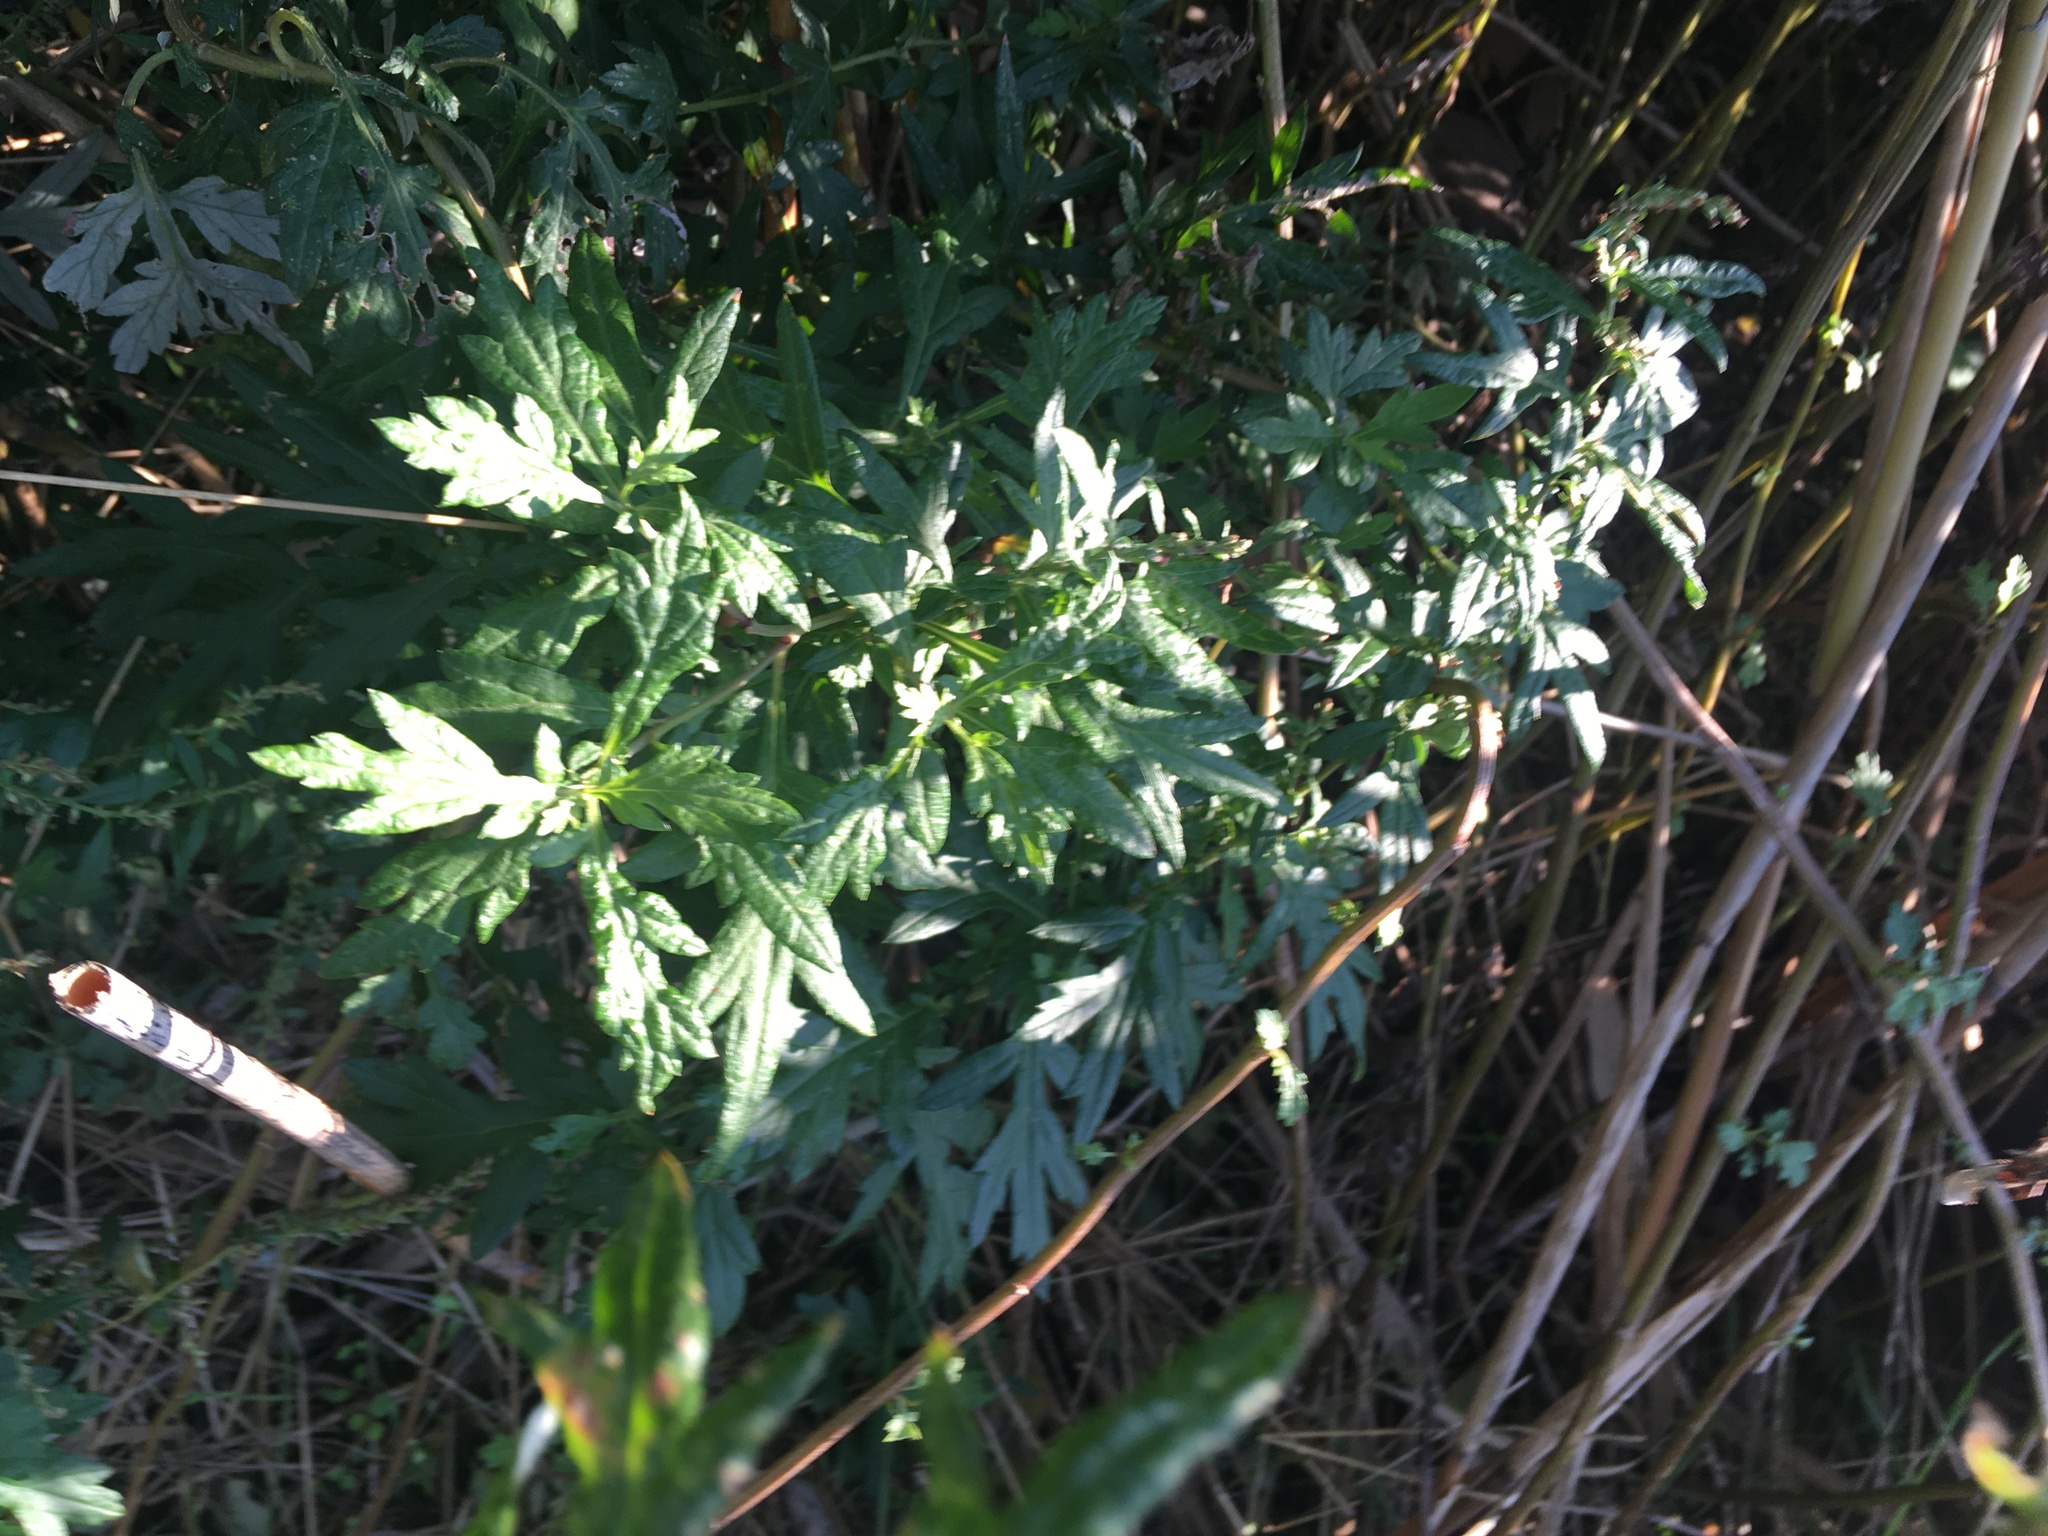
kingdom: Plantae
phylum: Tracheophyta
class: Magnoliopsida
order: Asterales
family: Asteraceae
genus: Artemisia
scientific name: Artemisia vulgaris
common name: Mugwort
